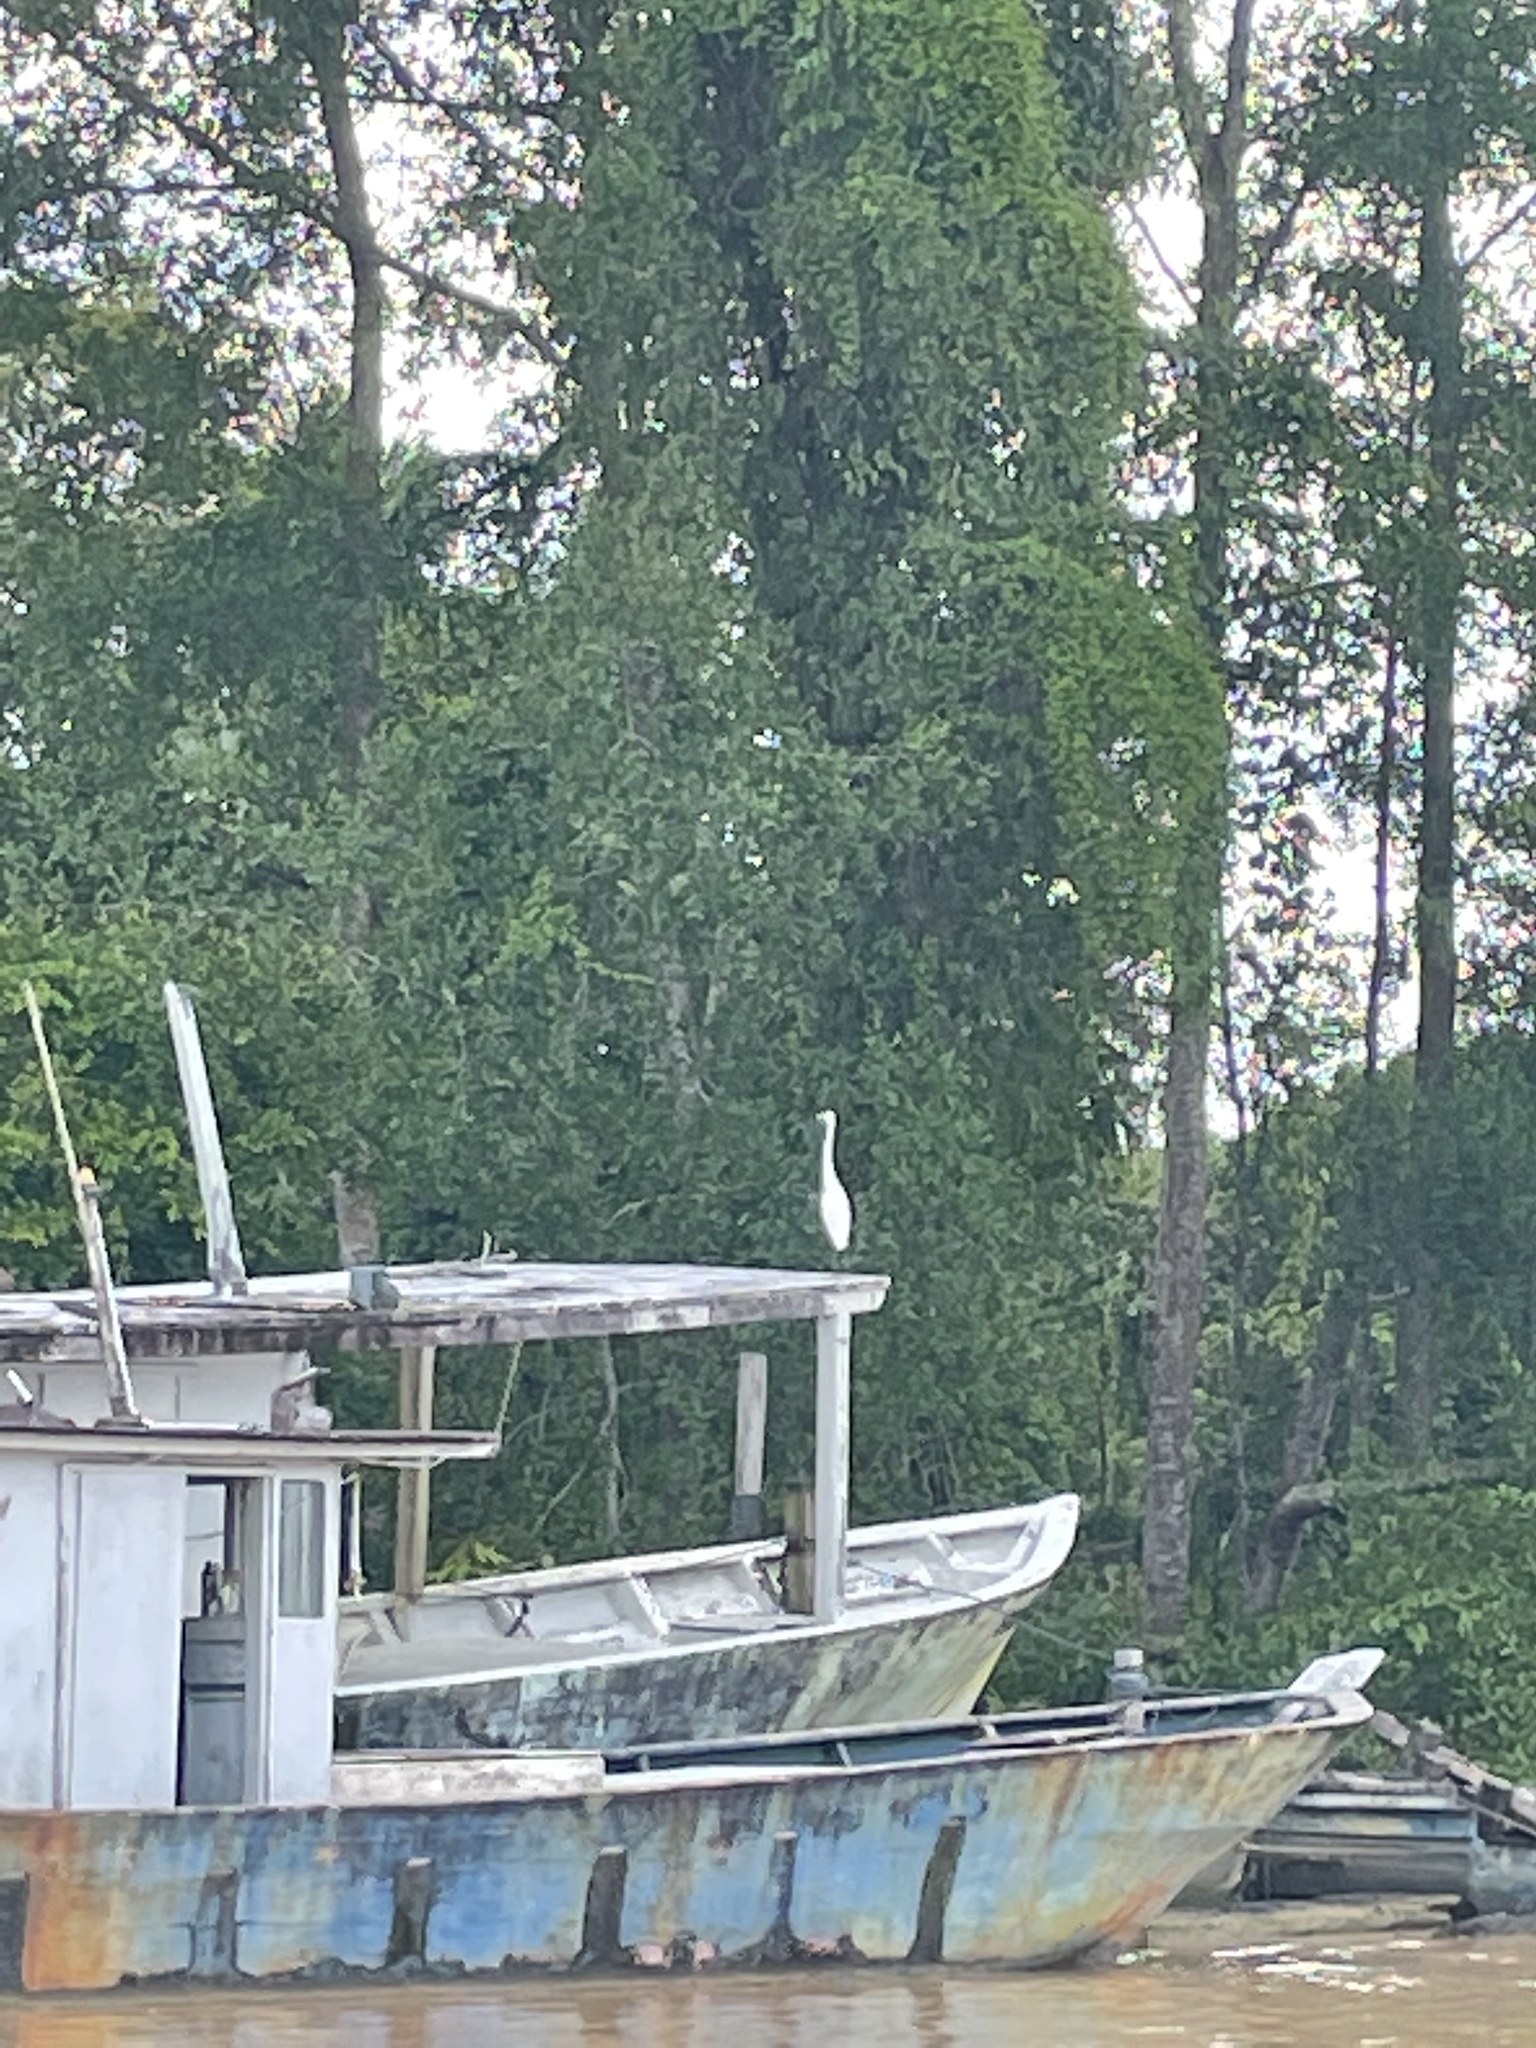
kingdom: Animalia
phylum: Chordata
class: Aves
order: Pelecaniformes
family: Ardeidae
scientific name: Ardeidae
